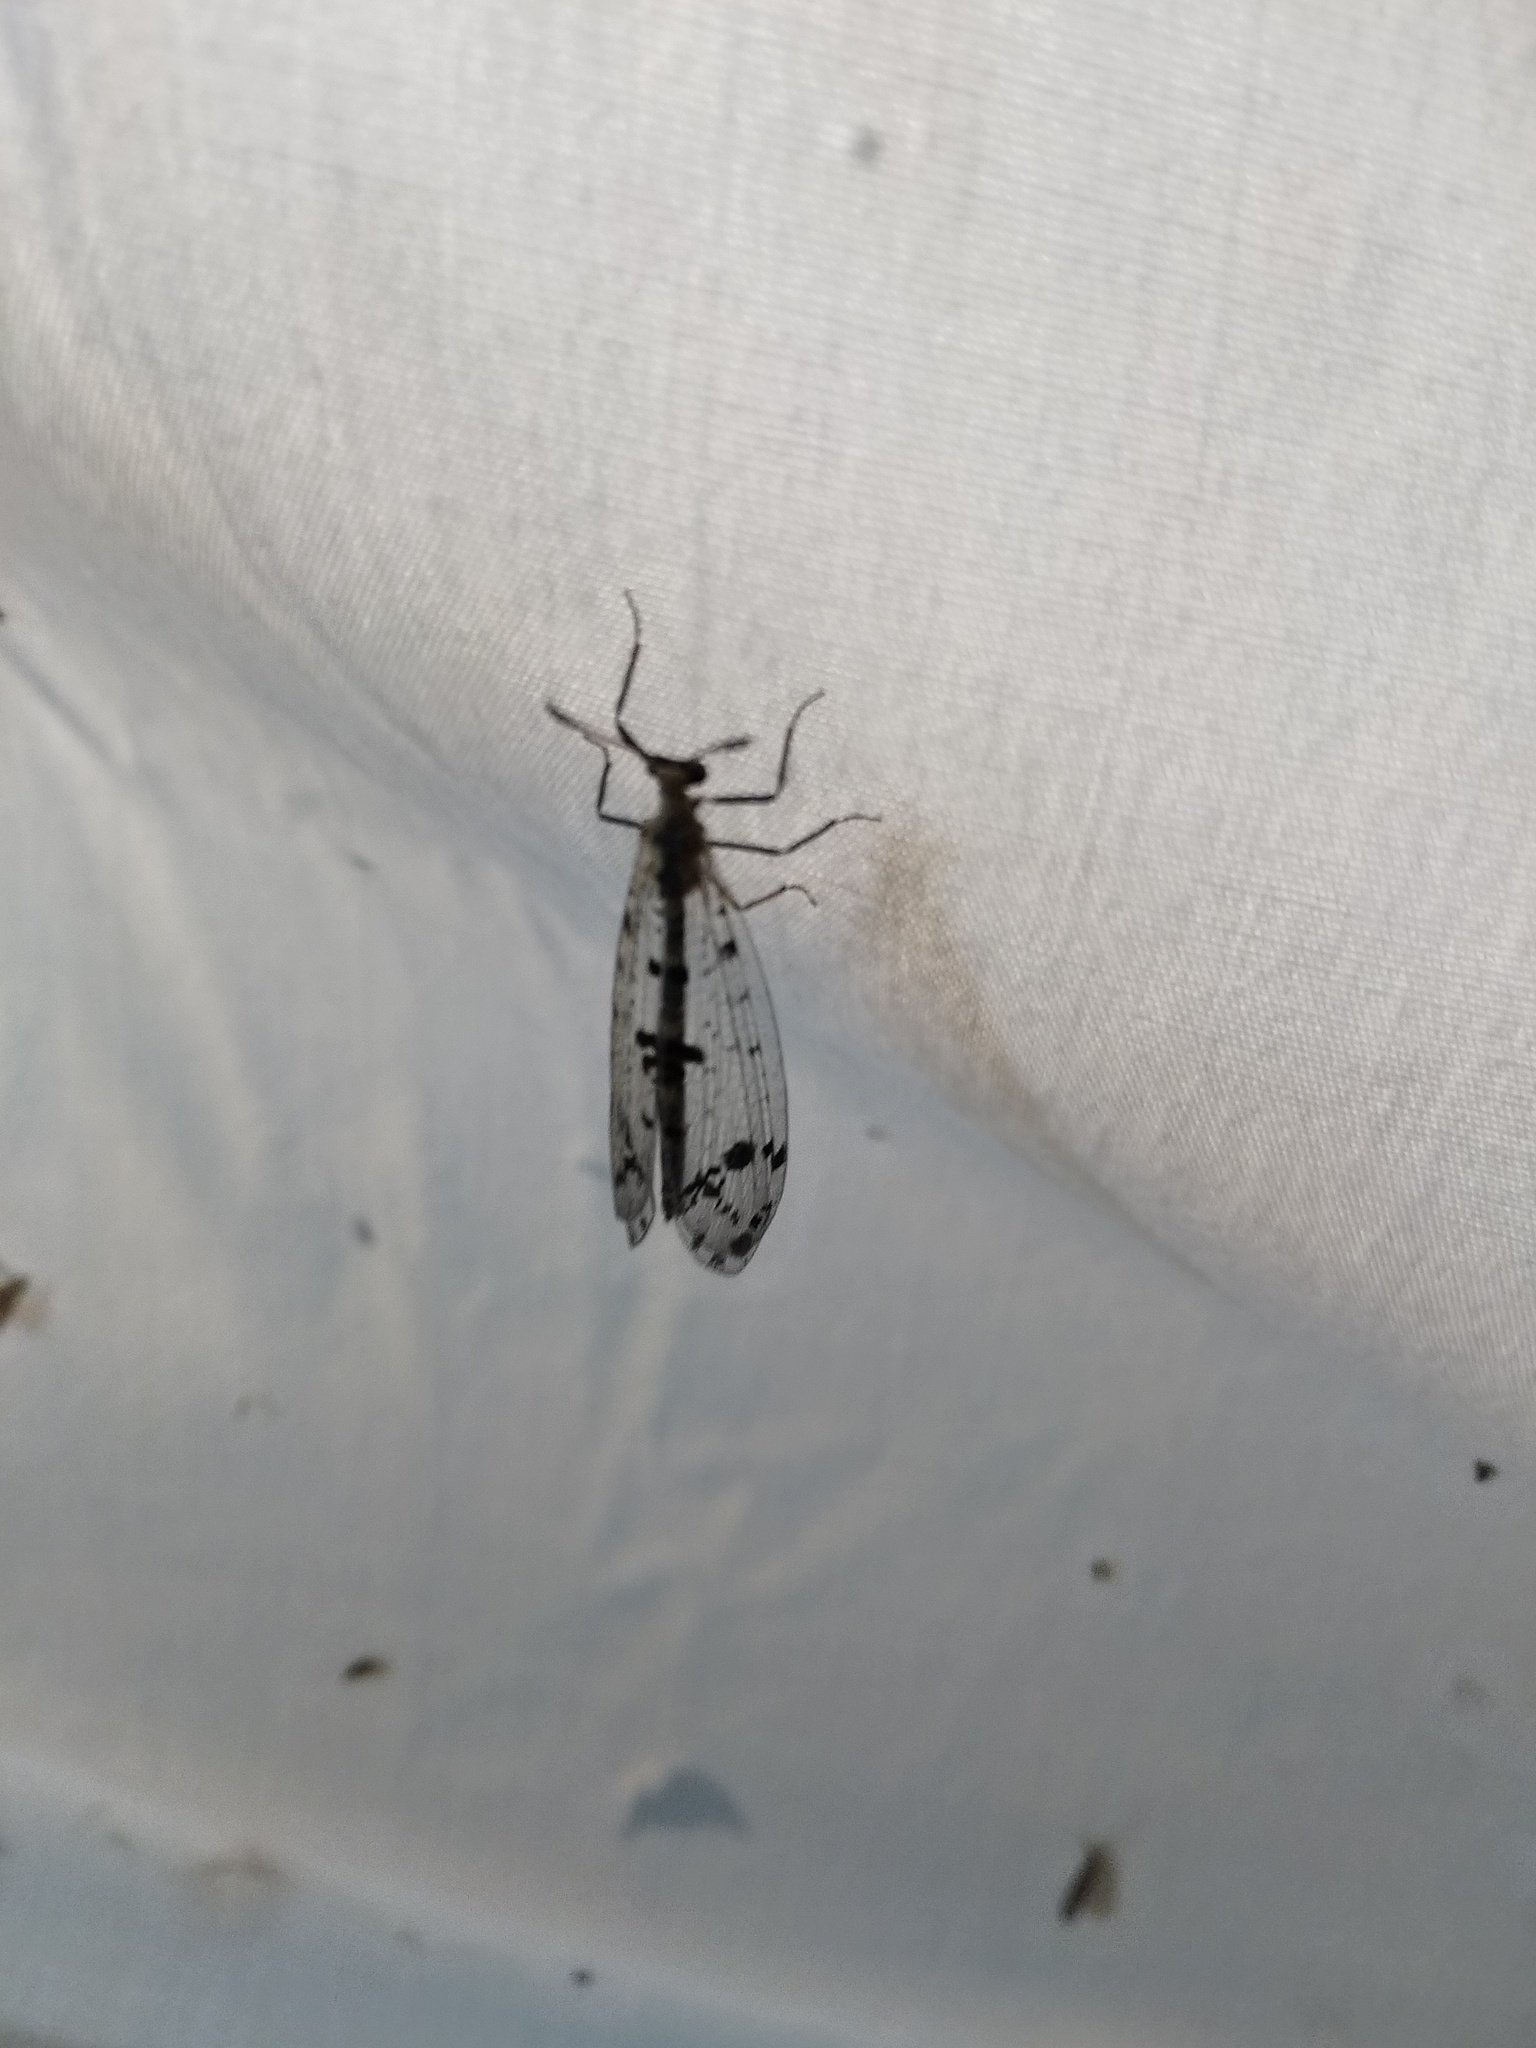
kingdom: Animalia
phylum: Arthropoda
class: Insecta
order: Neuroptera
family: Myrmeleontidae
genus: Dendroleon
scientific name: Dendroleon obsoletus
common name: Eastern spotted-winged antlion
